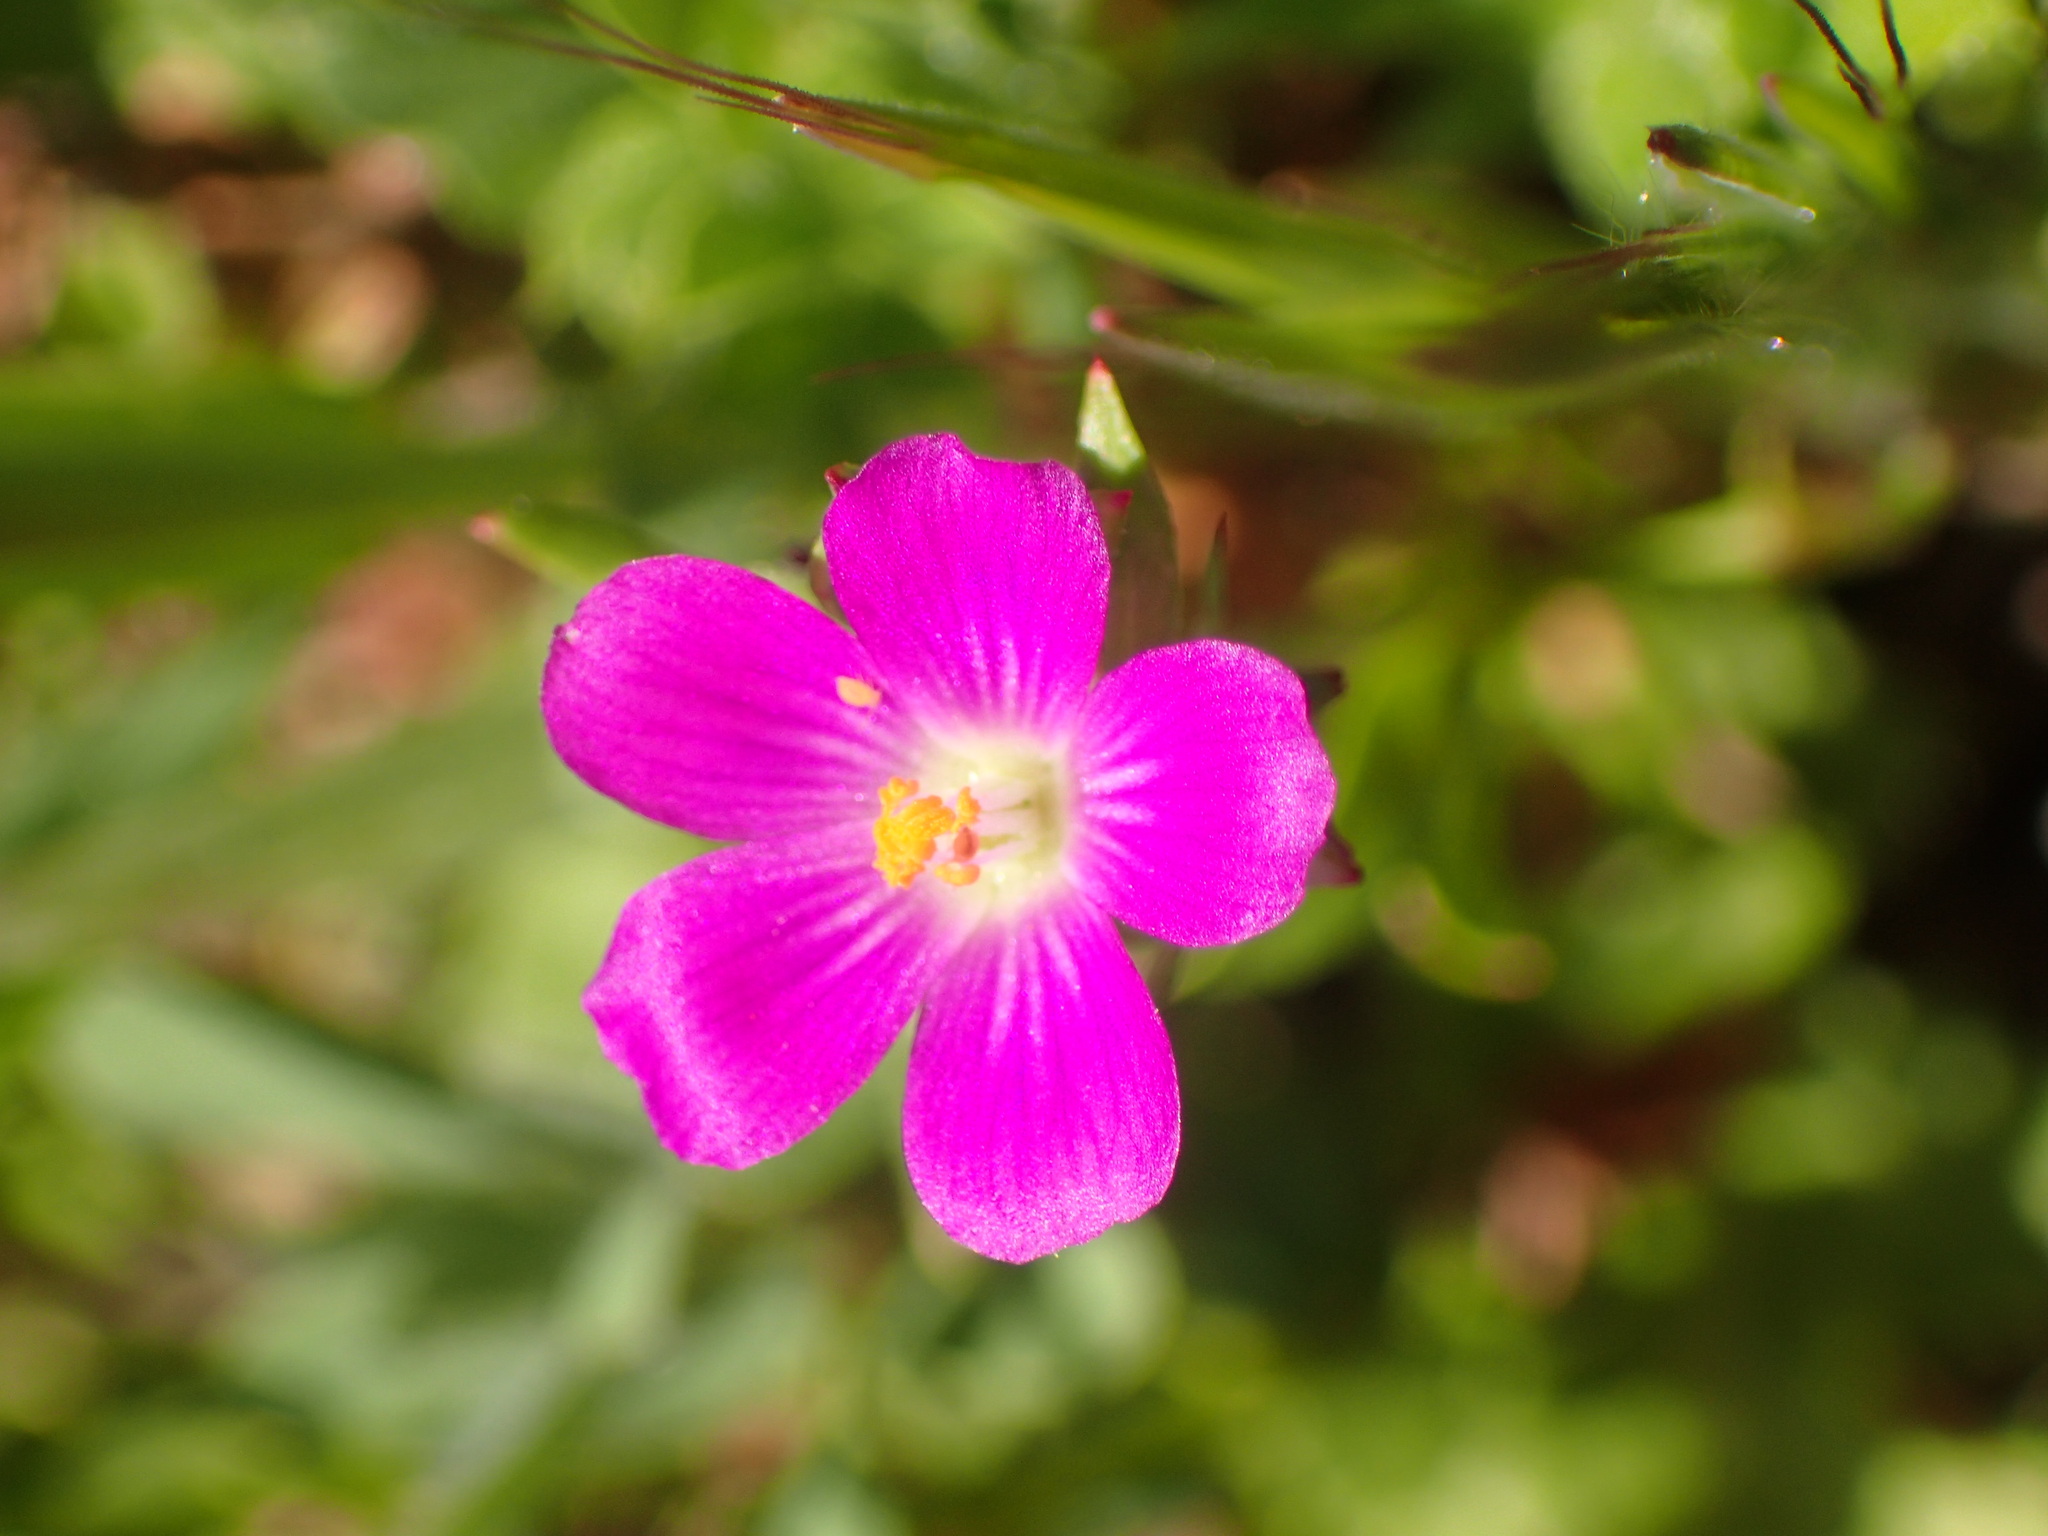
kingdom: Plantae
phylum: Tracheophyta
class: Magnoliopsida
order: Caryophyllales
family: Montiaceae
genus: Calandrinia
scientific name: Calandrinia menziesii
